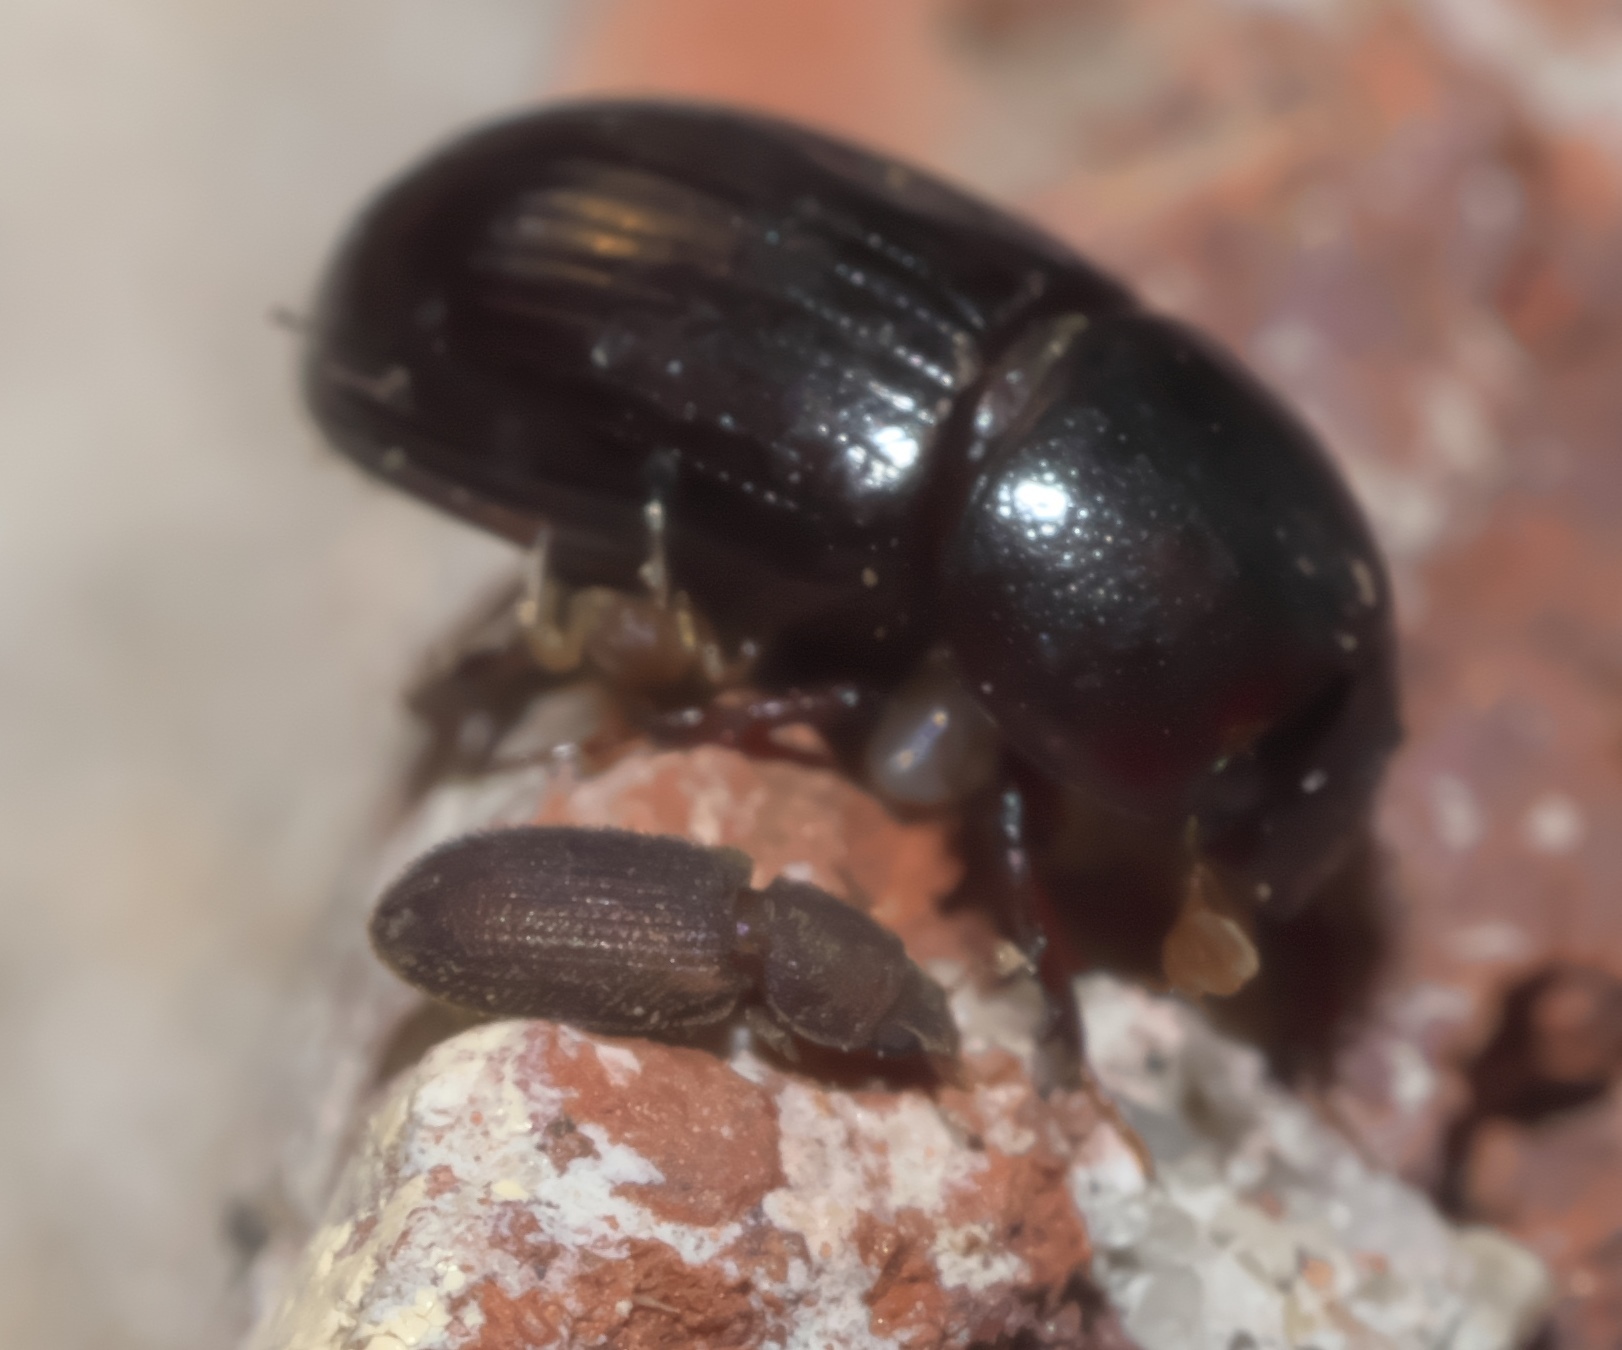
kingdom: Animalia
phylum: Arthropoda
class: Insecta
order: Coleoptera
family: Zopheridae
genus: Synchita
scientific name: Synchita fuliginosa
